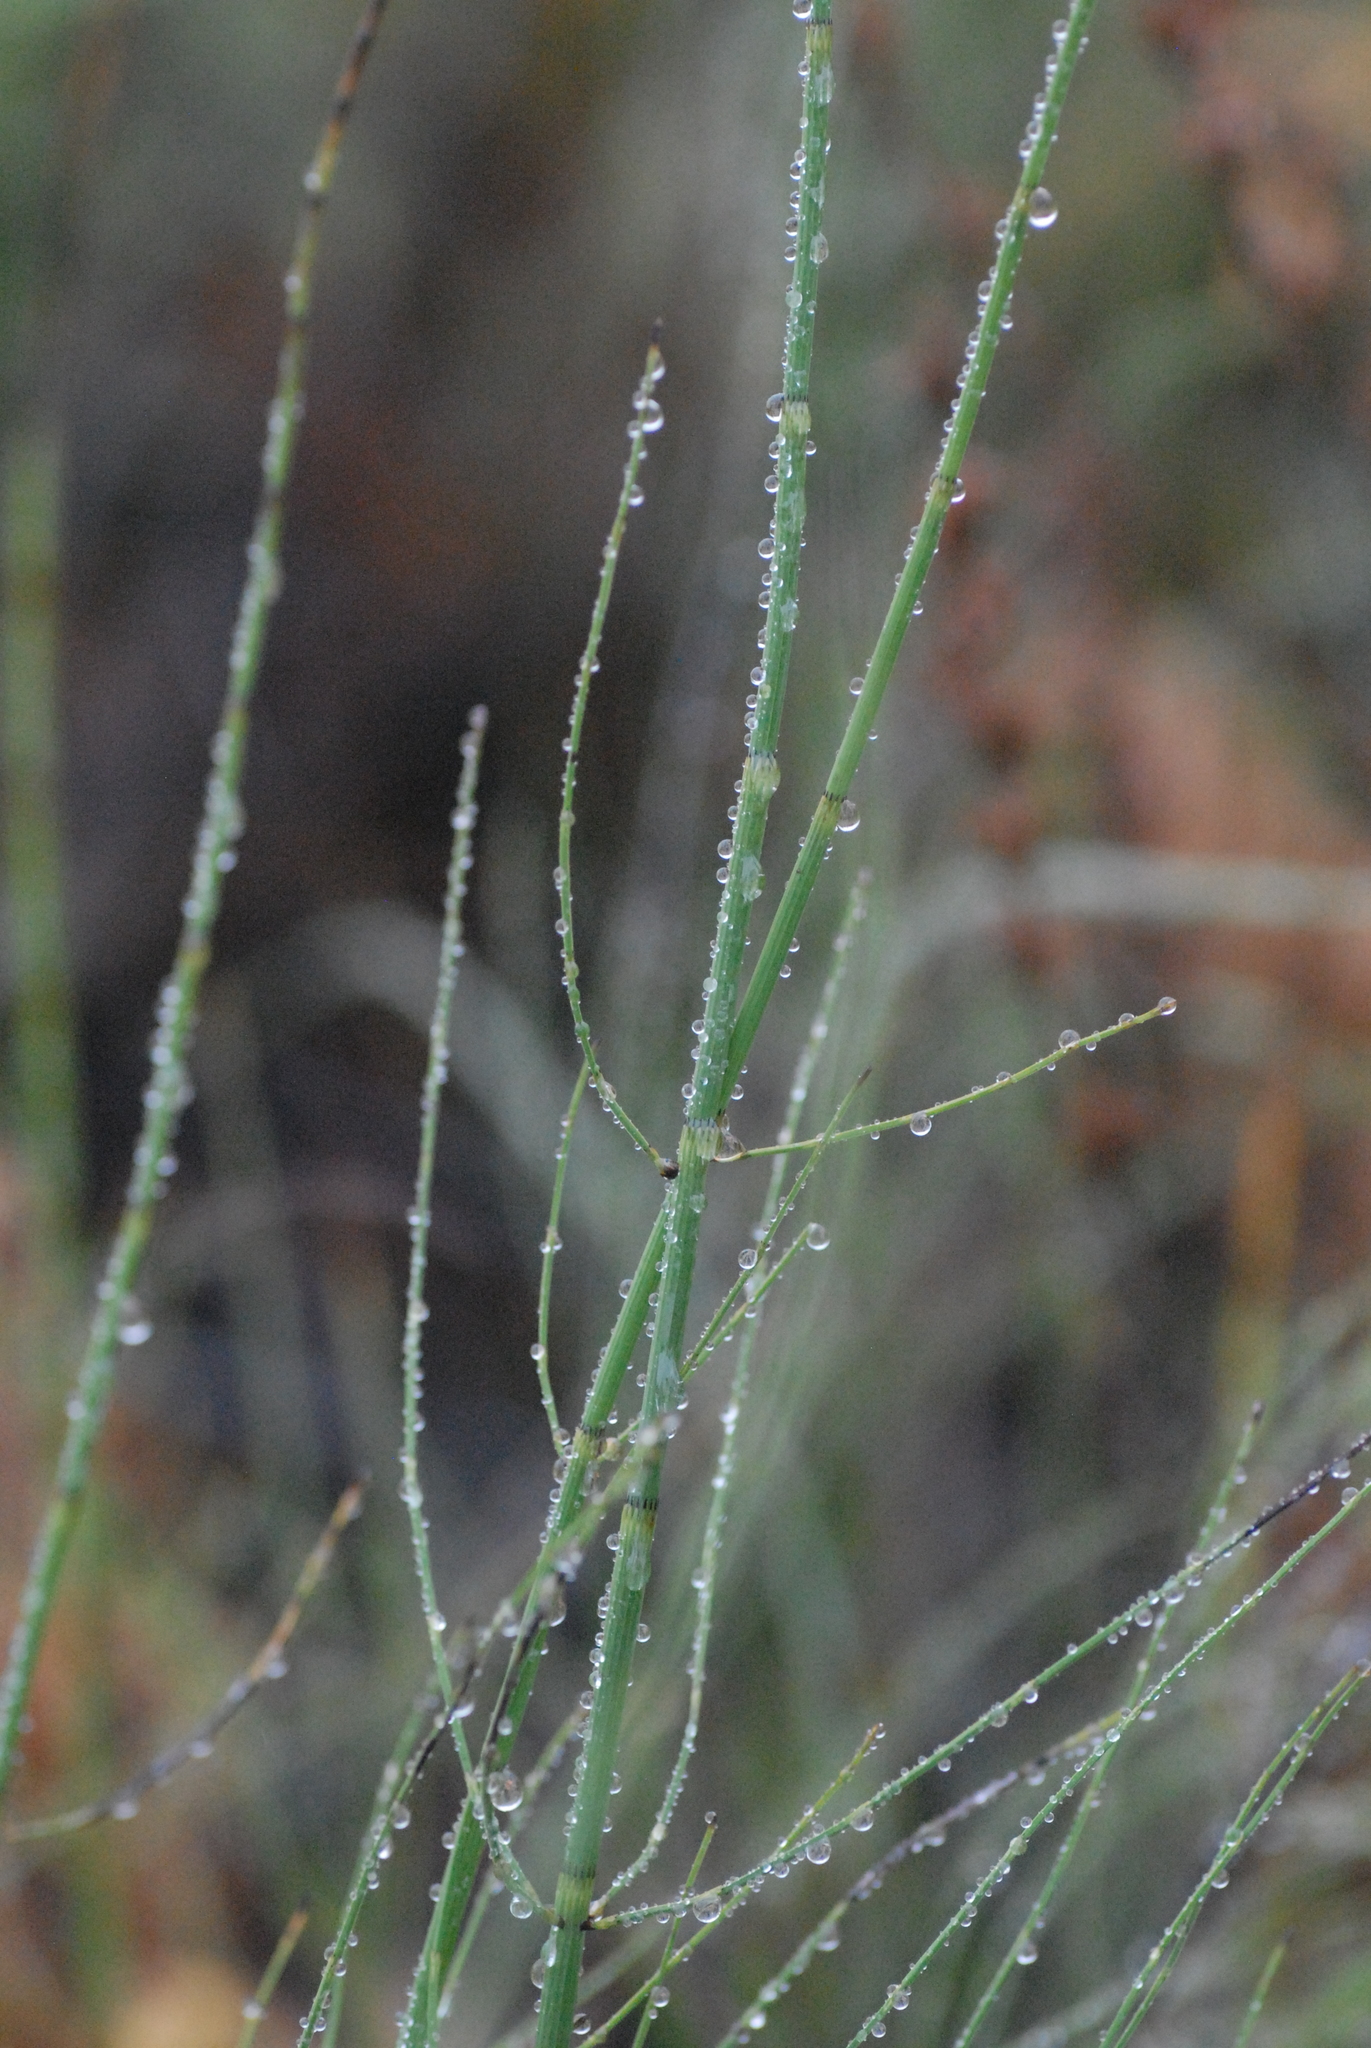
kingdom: Plantae
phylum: Tracheophyta
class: Polypodiopsida
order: Equisetales
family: Equisetaceae
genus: Equisetum
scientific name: Equisetum fluviatile
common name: Water horsetail
